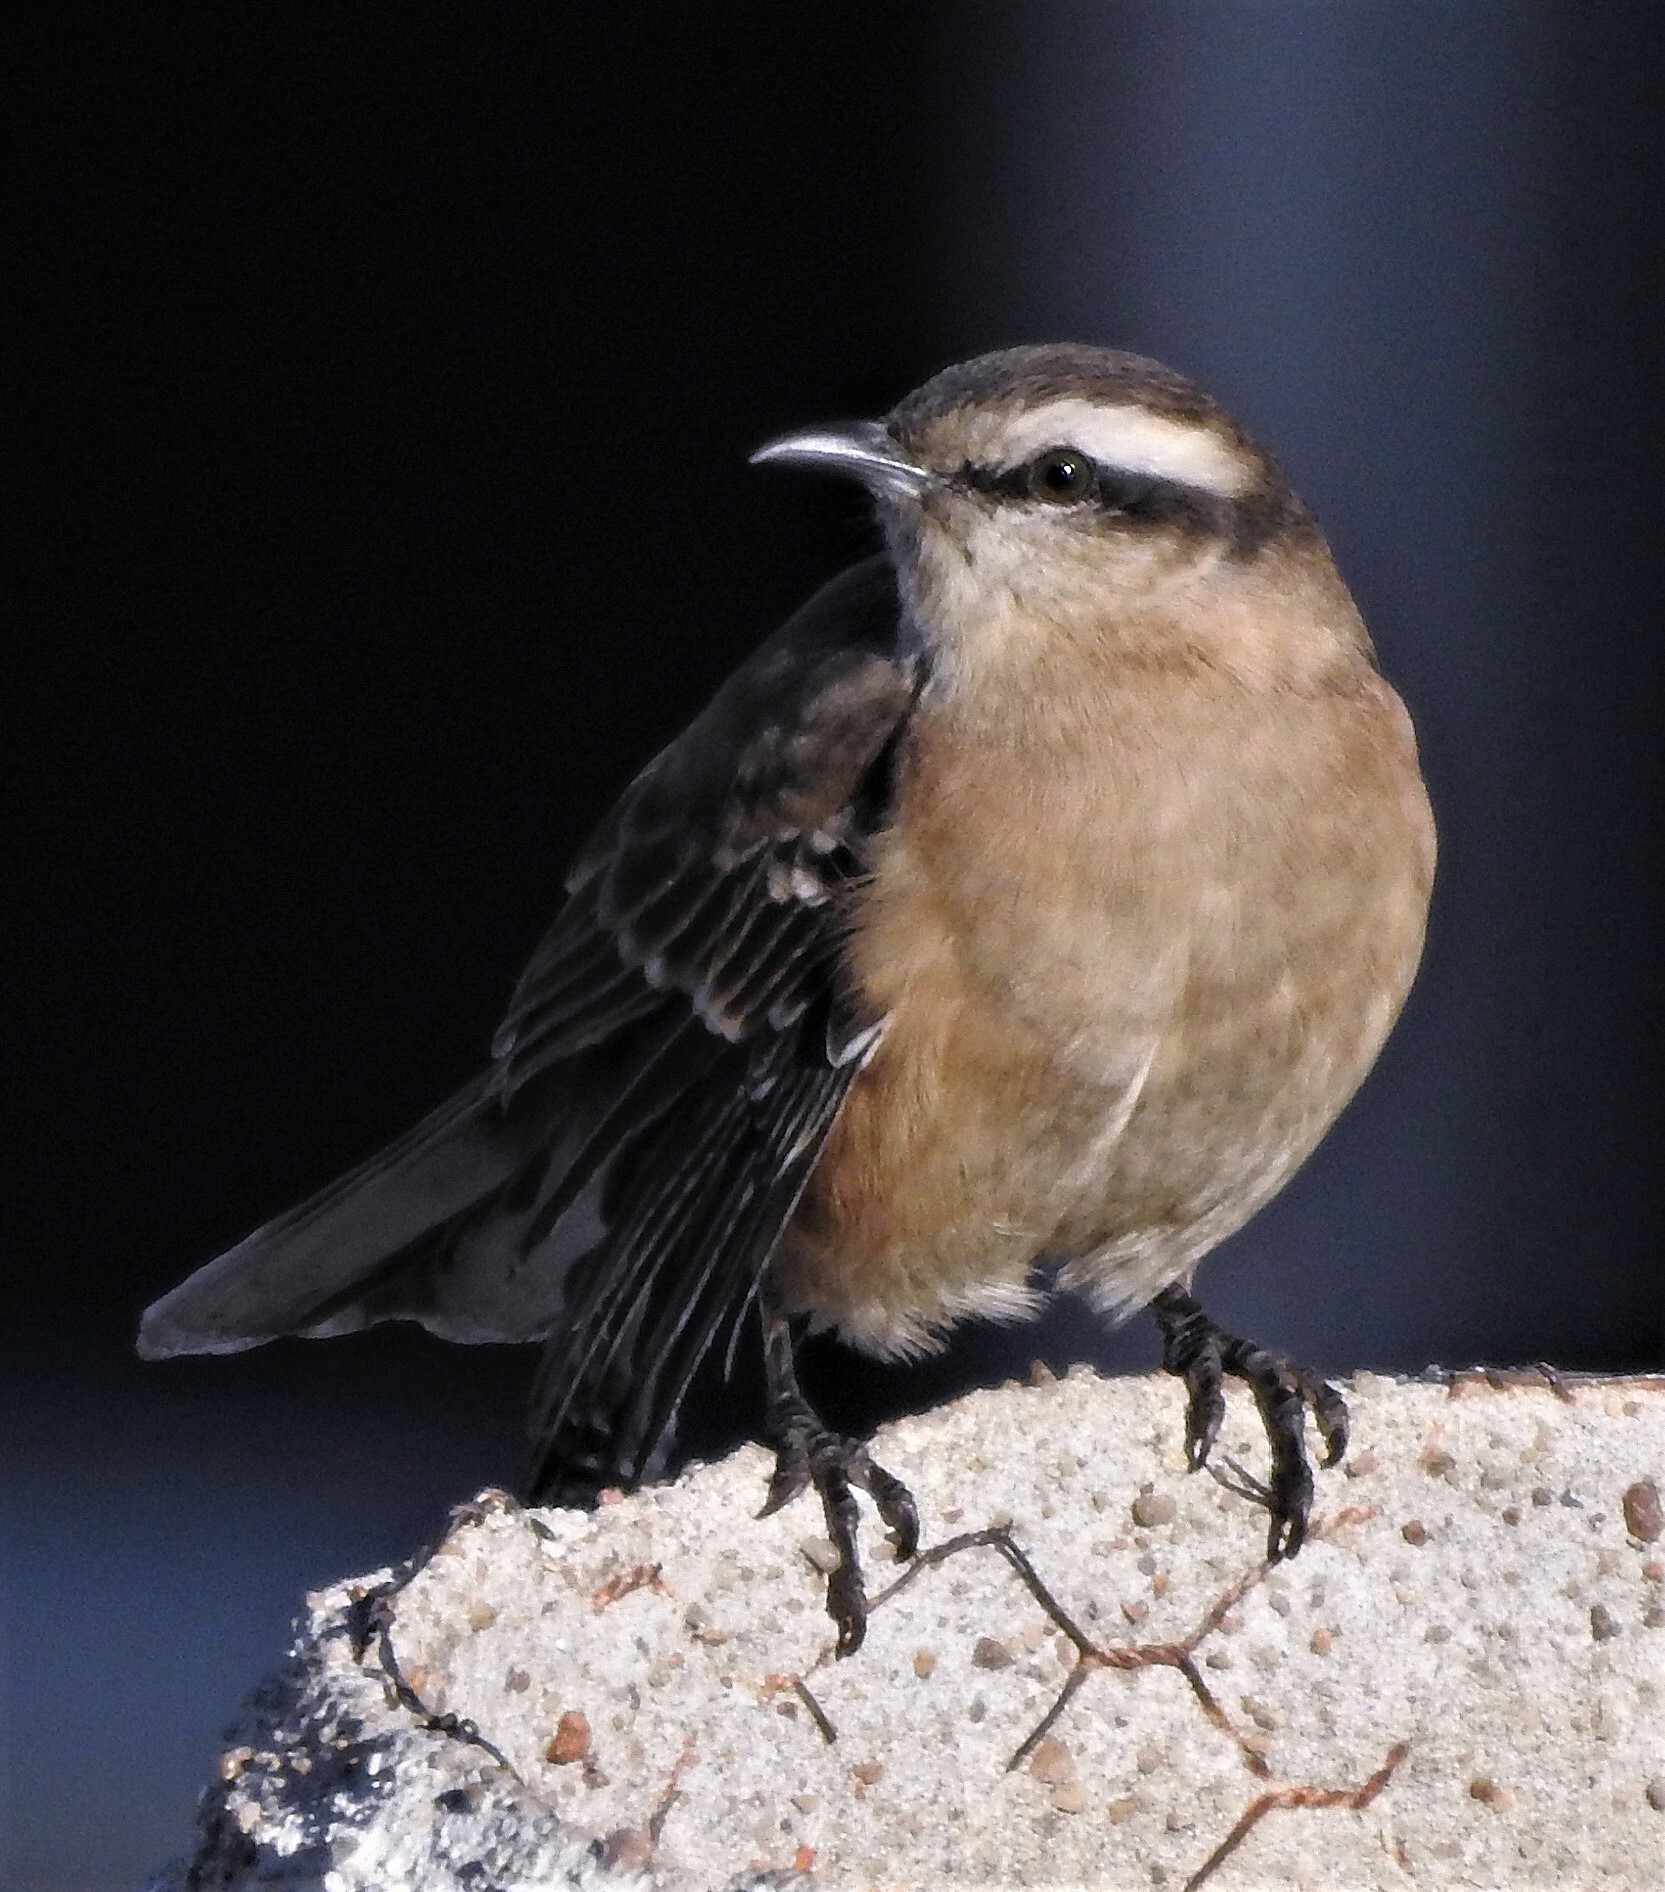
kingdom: Animalia
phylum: Chordata
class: Aves
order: Passeriformes
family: Mimidae
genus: Mimus
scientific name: Mimus saturninus
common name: Chalk-browed mockingbird
